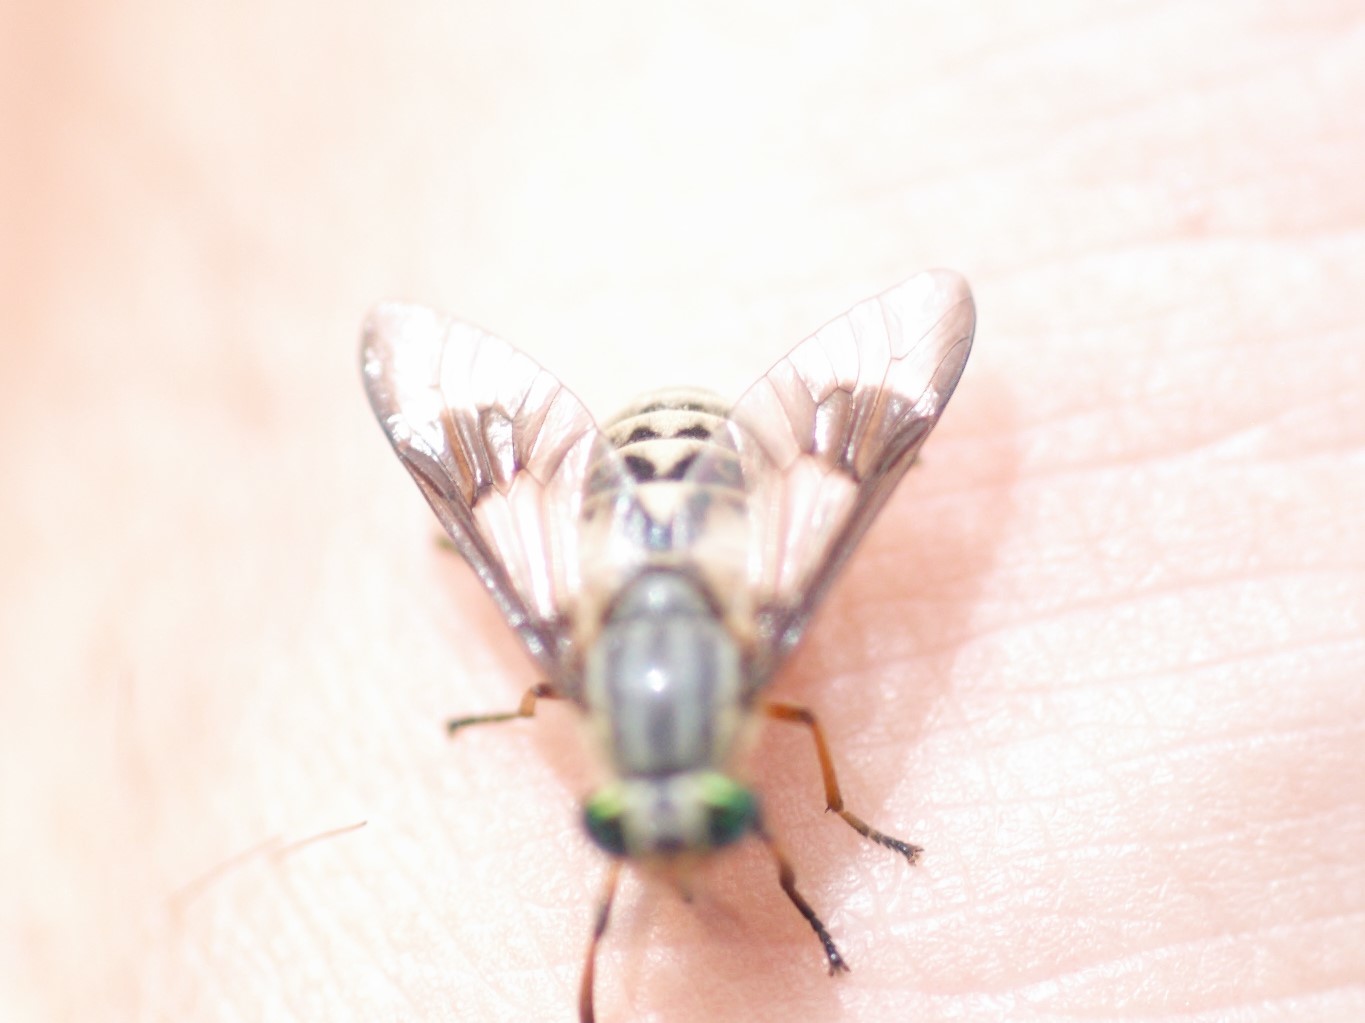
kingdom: Animalia
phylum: Arthropoda
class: Insecta
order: Diptera
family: Tabanidae
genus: Chrysops
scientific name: Chrysops aestuans
